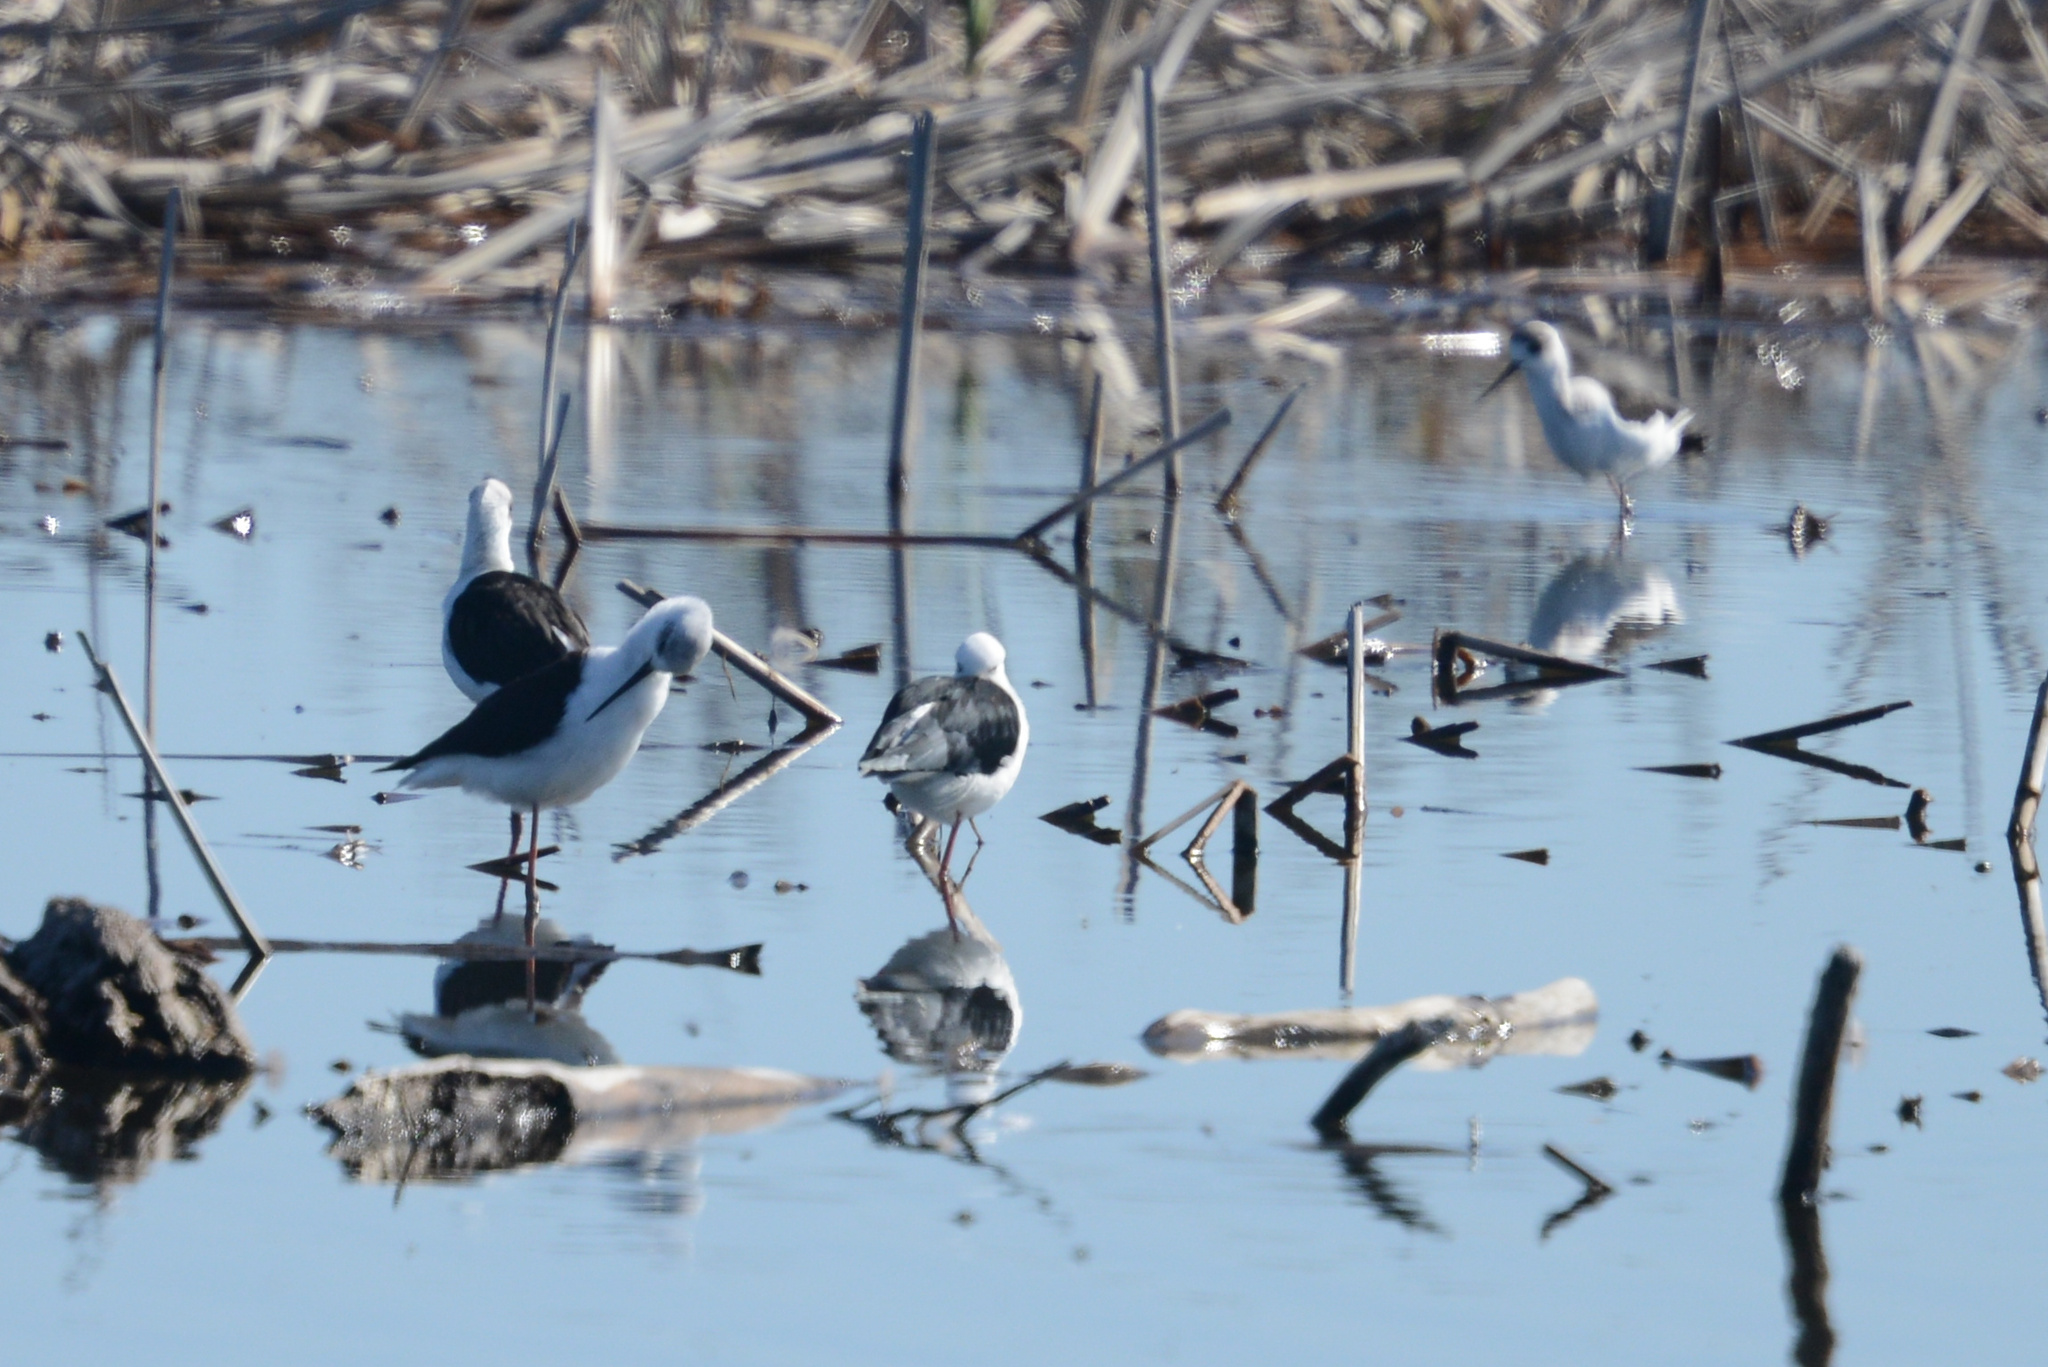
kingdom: Animalia
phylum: Chordata
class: Aves
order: Charadriiformes
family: Recurvirostridae
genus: Himantopus
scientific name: Himantopus leucocephalus
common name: White-headed stilt
